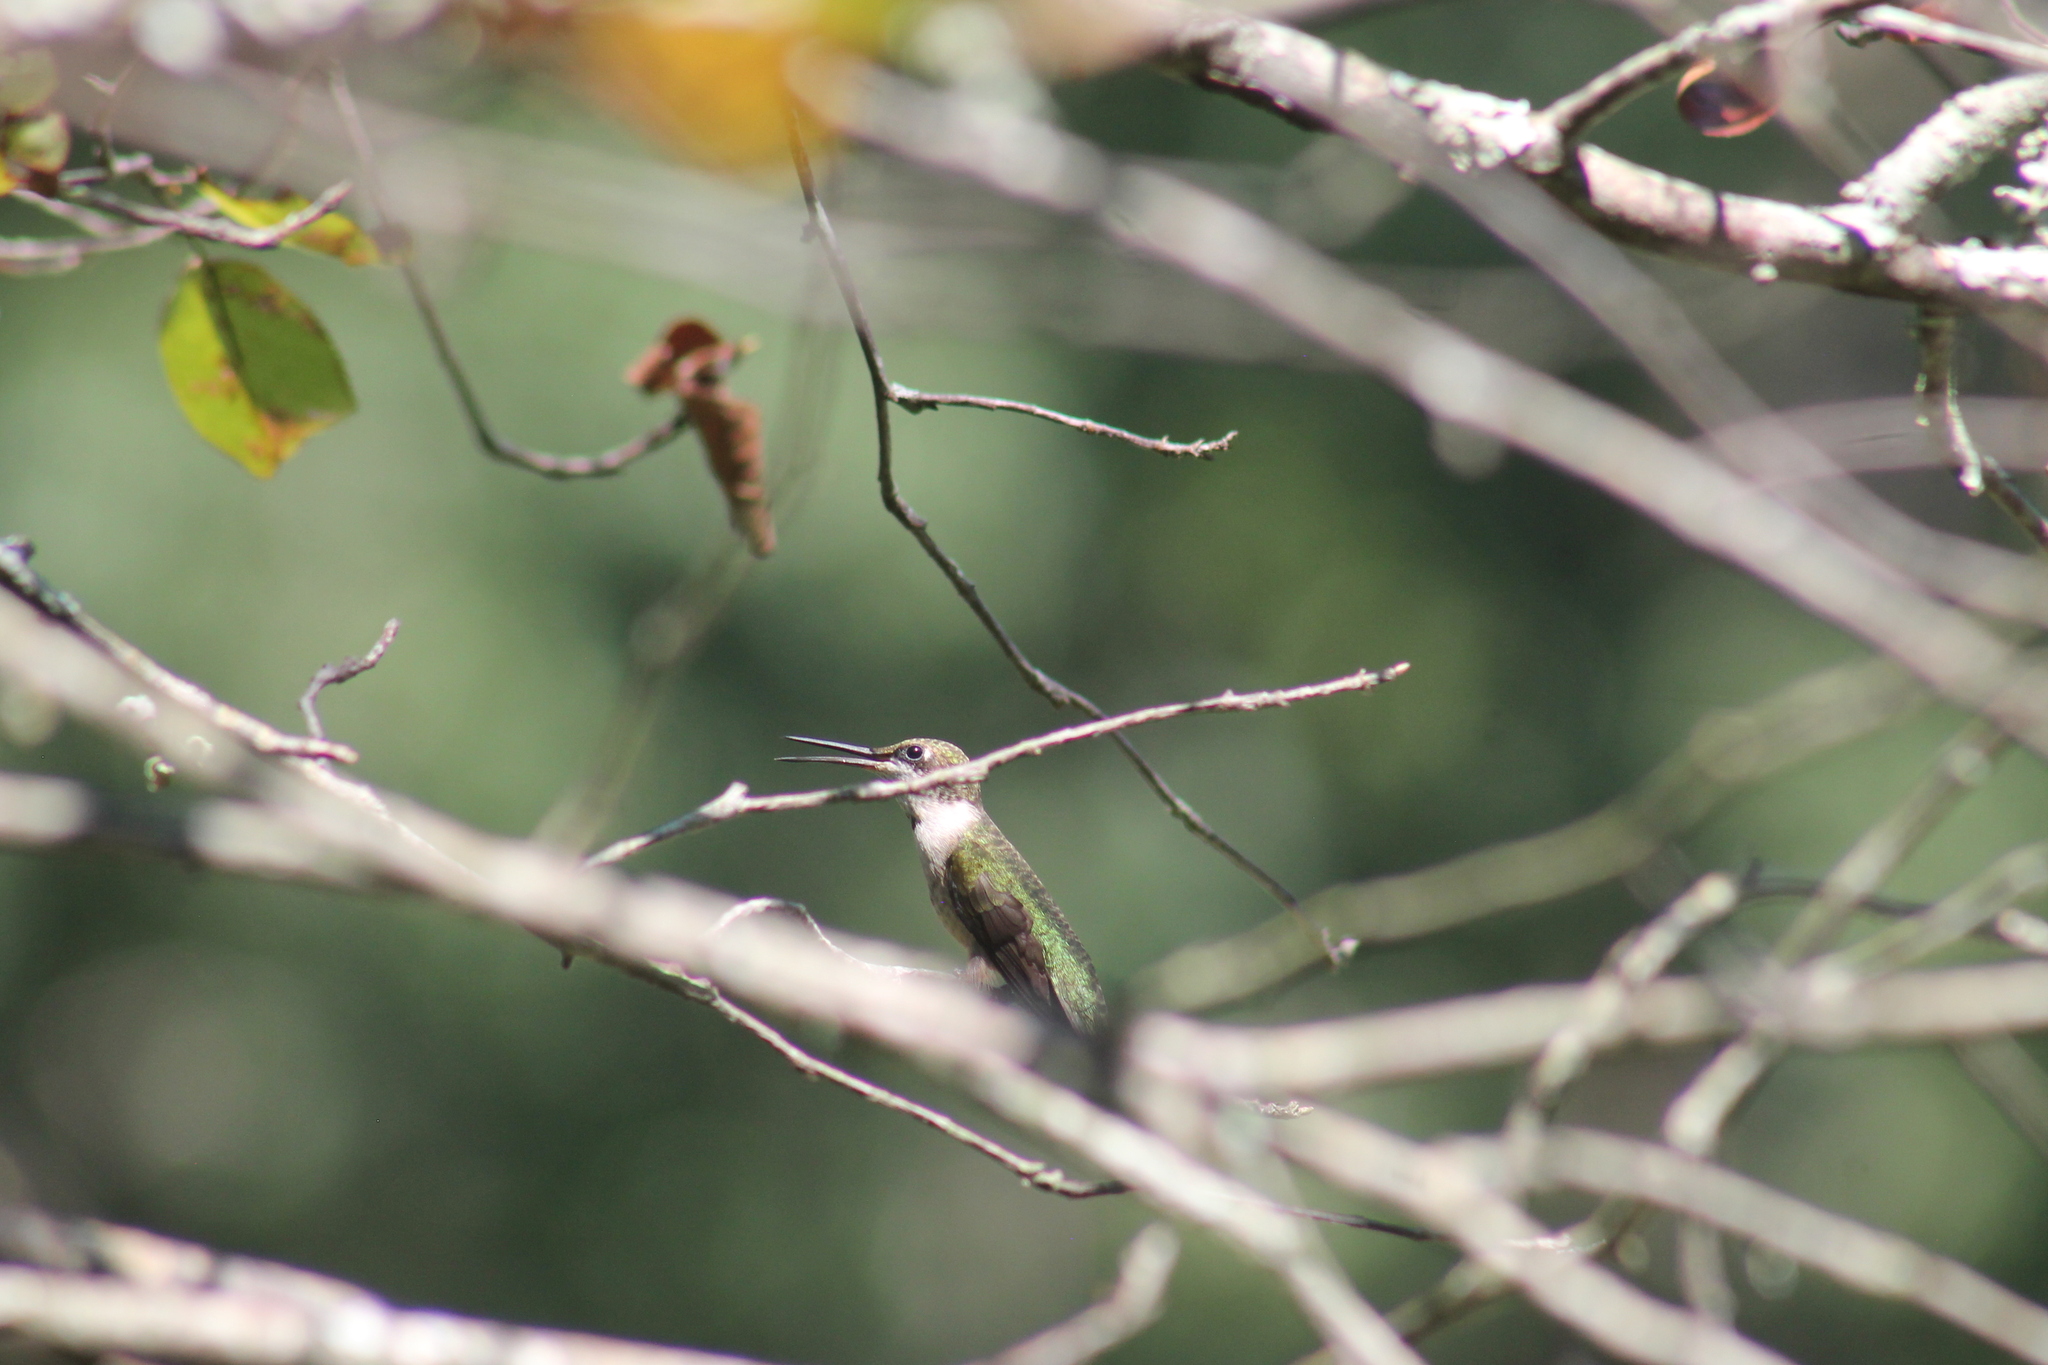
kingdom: Animalia
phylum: Chordata
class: Aves
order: Apodiformes
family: Trochilidae
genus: Archilochus
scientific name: Archilochus colubris
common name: Ruby-throated hummingbird
